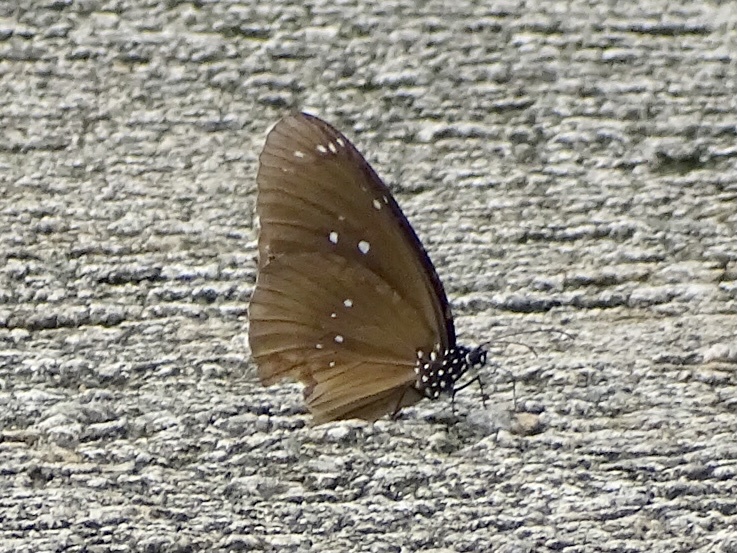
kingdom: Animalia
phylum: Arthropoda
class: Insecta
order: Lepidoptera
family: Nymphalidae
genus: Euploea
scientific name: Euploea core
